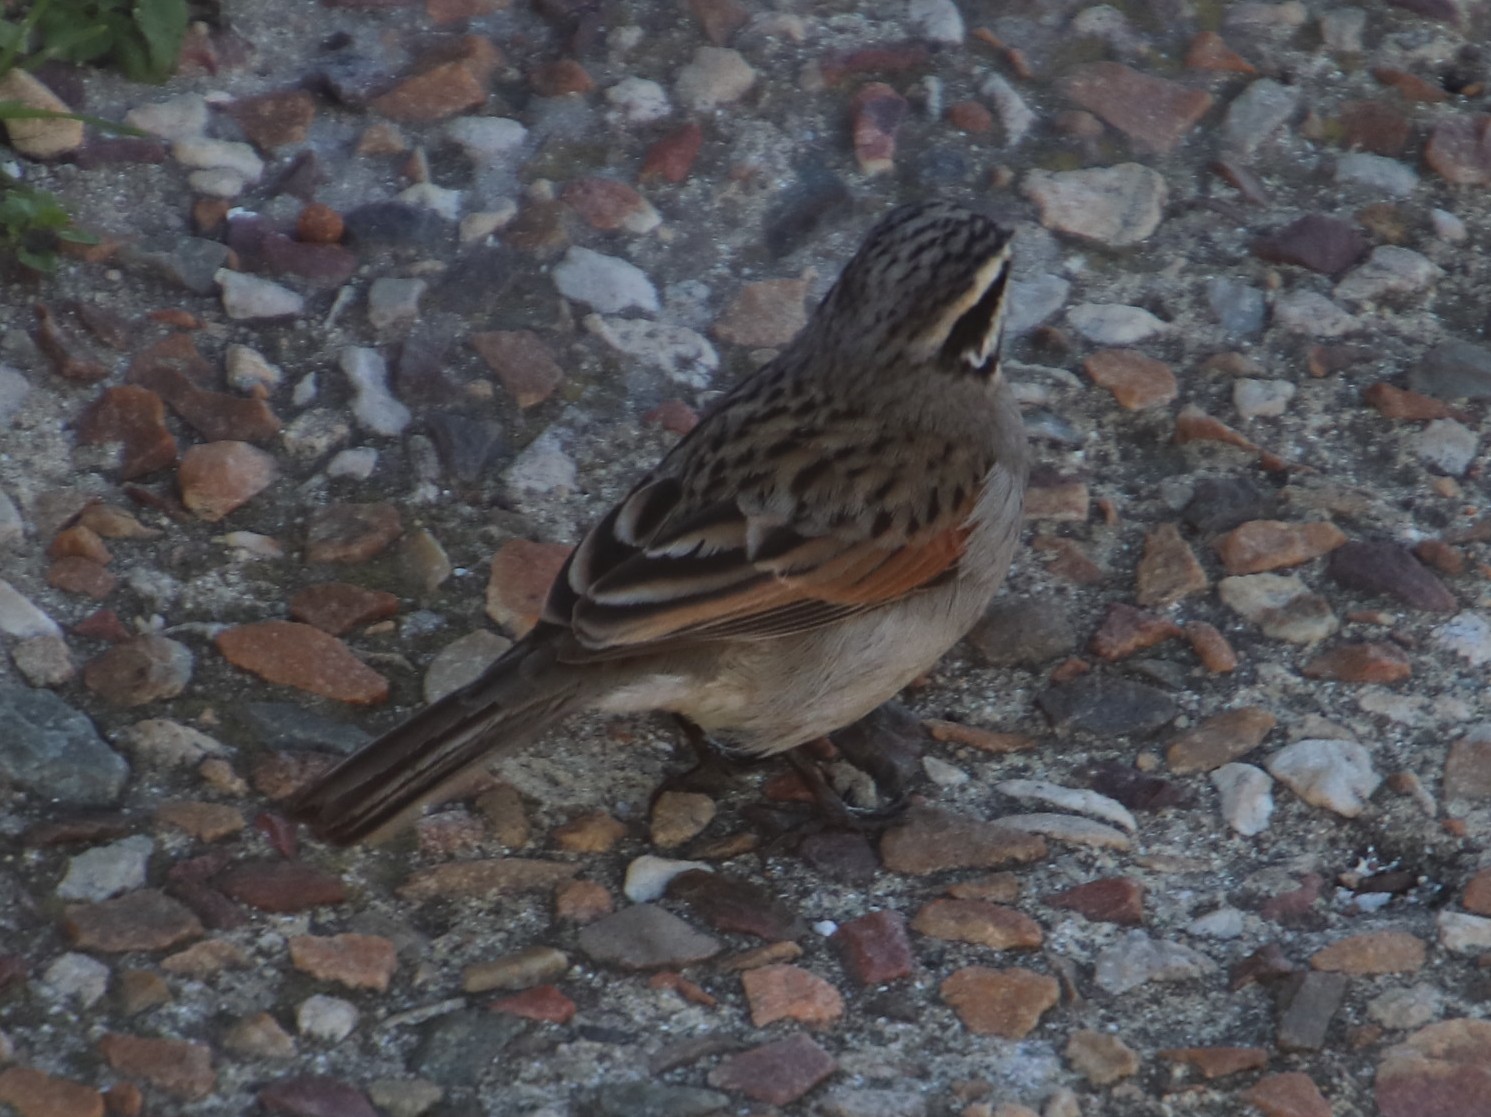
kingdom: Animalia
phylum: Chordata
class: Aves
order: Passeriformes
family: Emberizidae
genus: Emberiza
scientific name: Emberiza capensis
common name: Cape bunting
